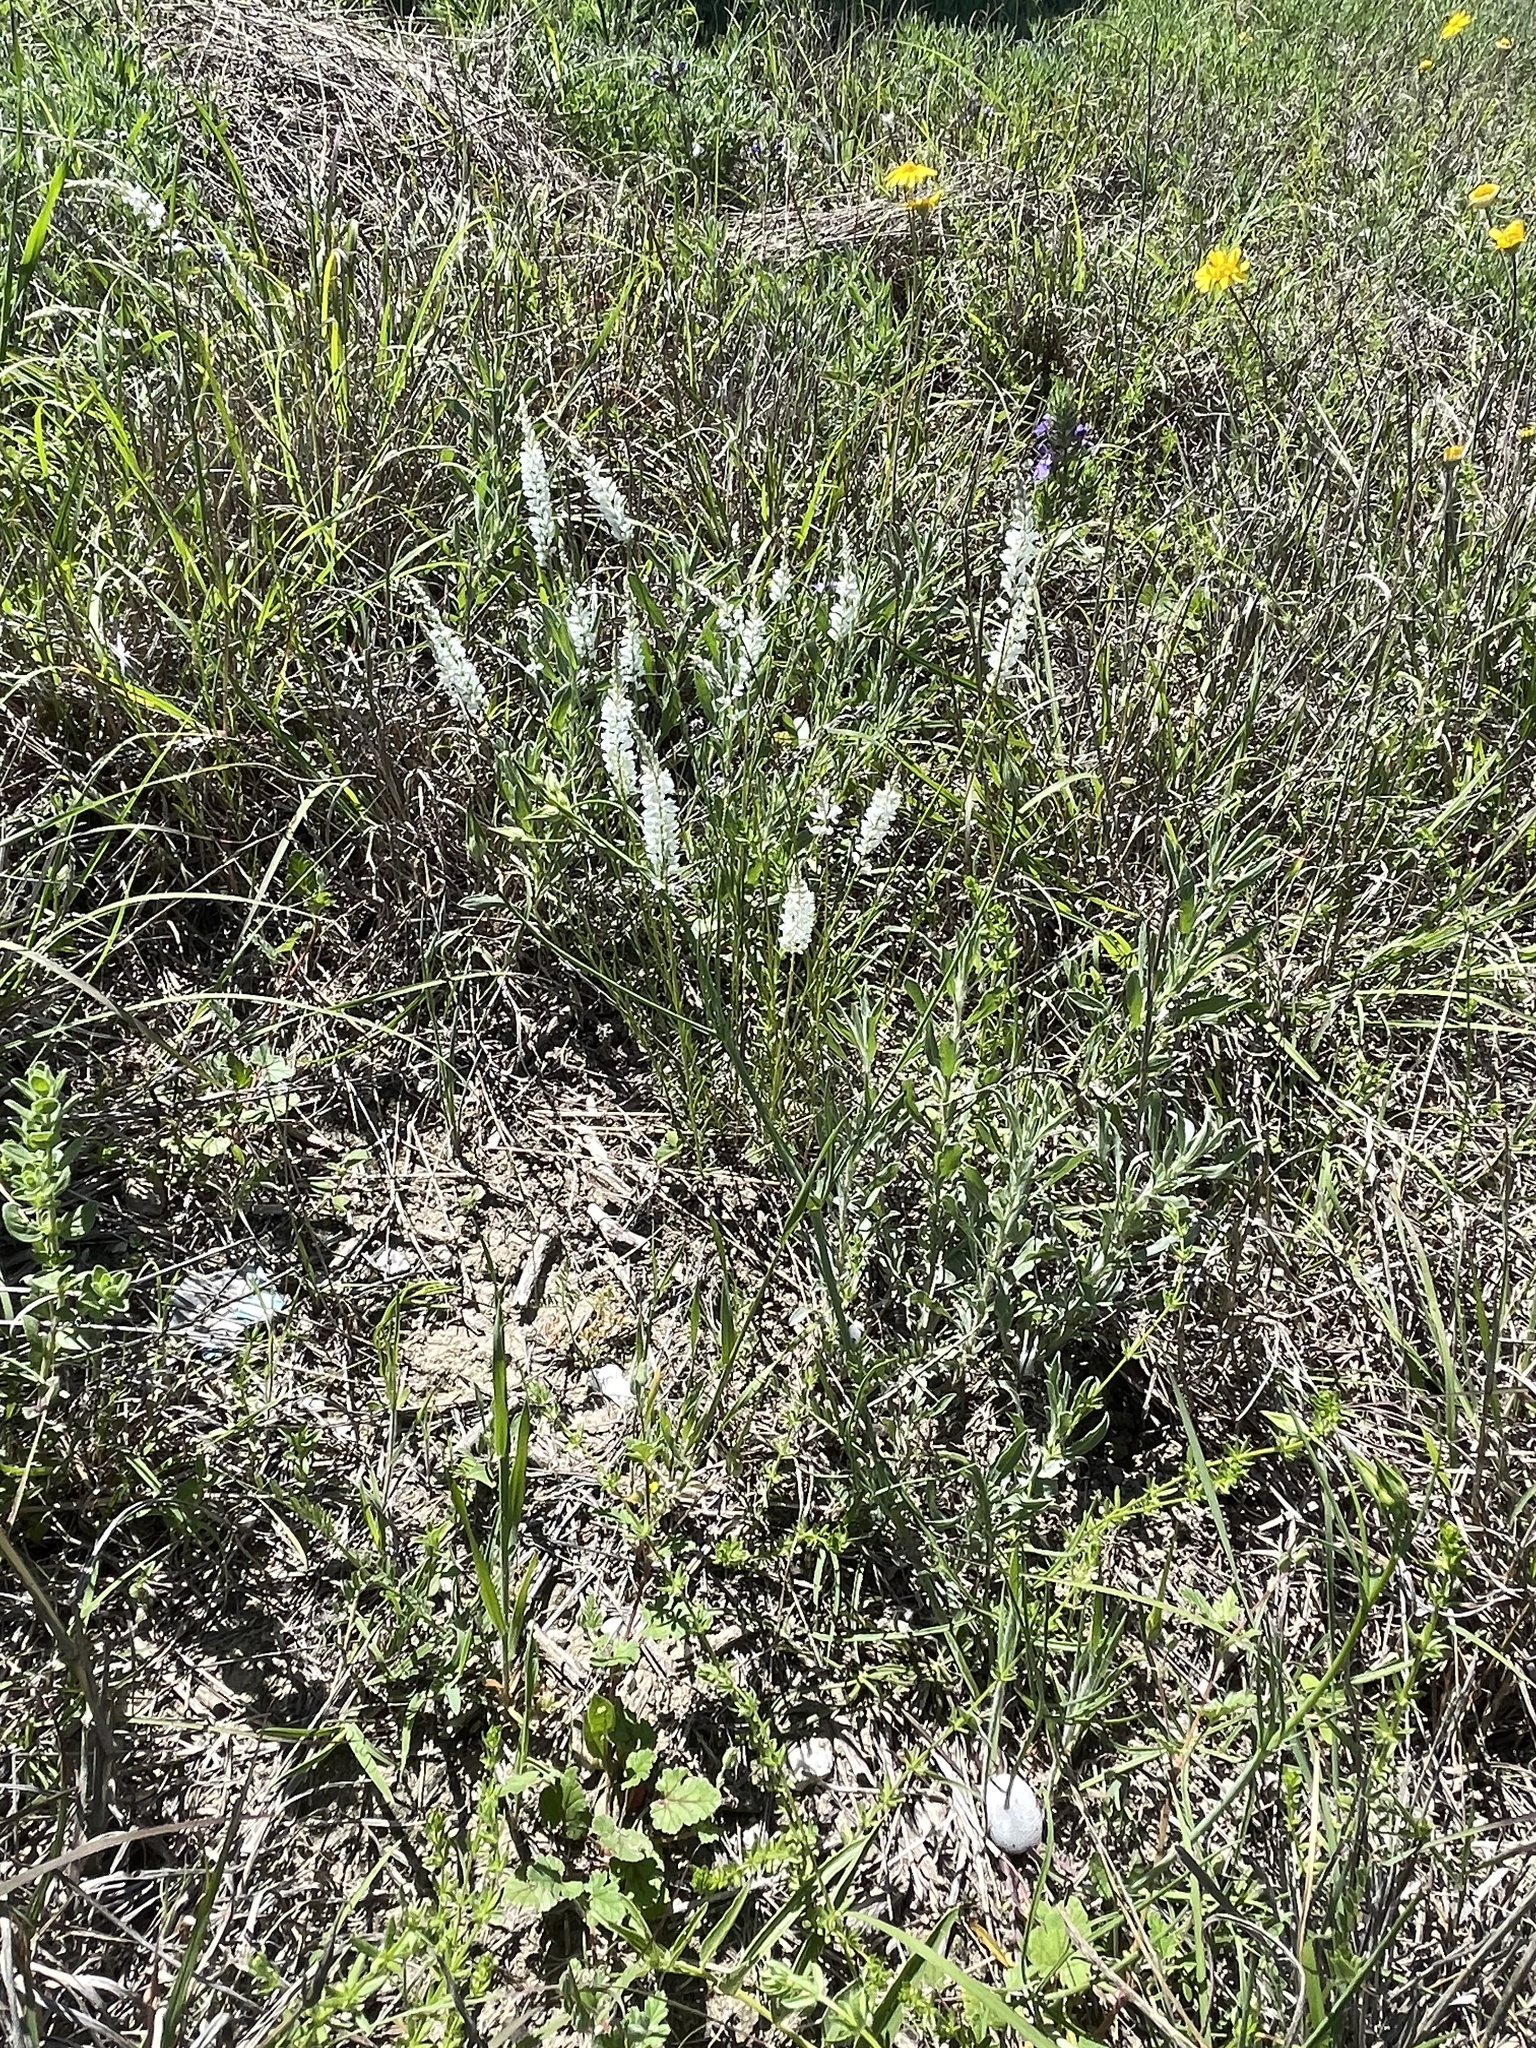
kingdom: Plantae
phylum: Tracheophyta
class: Magnoliopsida
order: Fabales
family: Polygalaceae
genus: Polygala
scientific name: Polygala alba
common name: White milkwort
